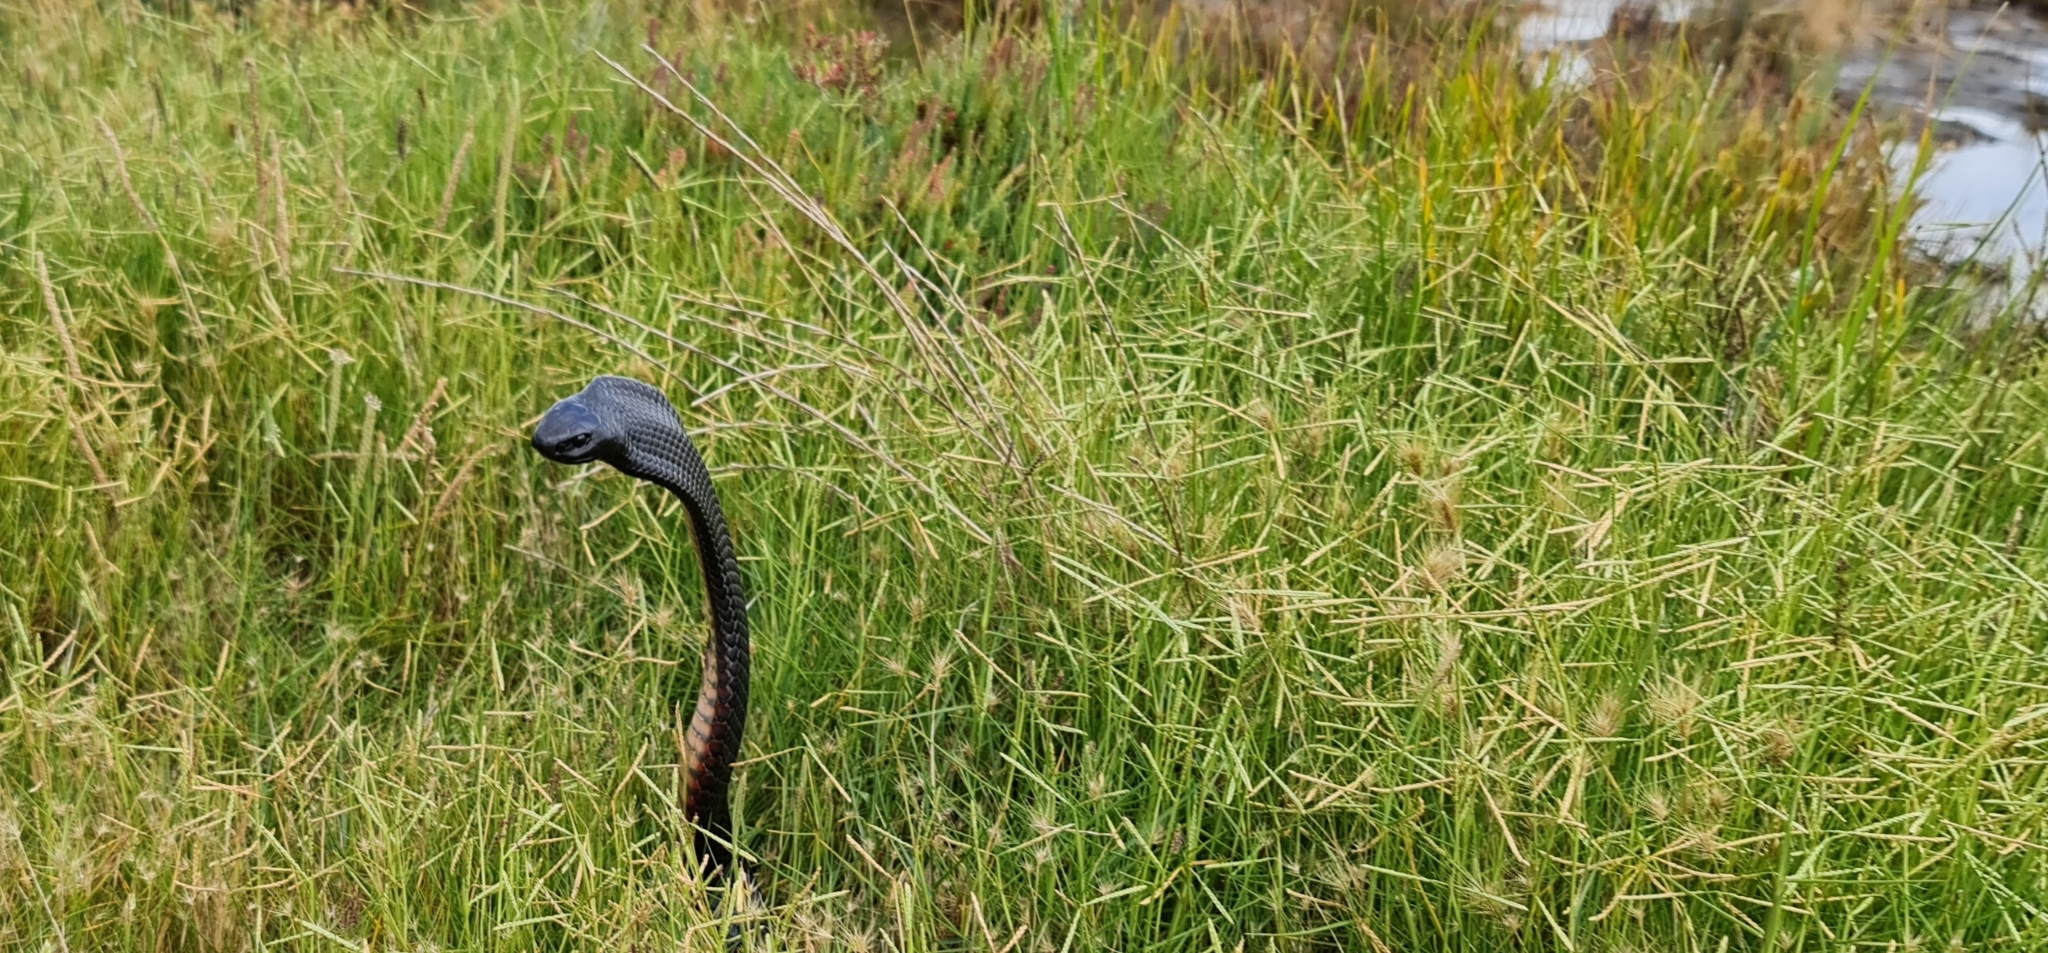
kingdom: Animalia
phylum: Chordata
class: Squamata
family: Elapidae
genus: Pseudechis
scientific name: Pseudechis porphyriacus
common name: Australian black snake
